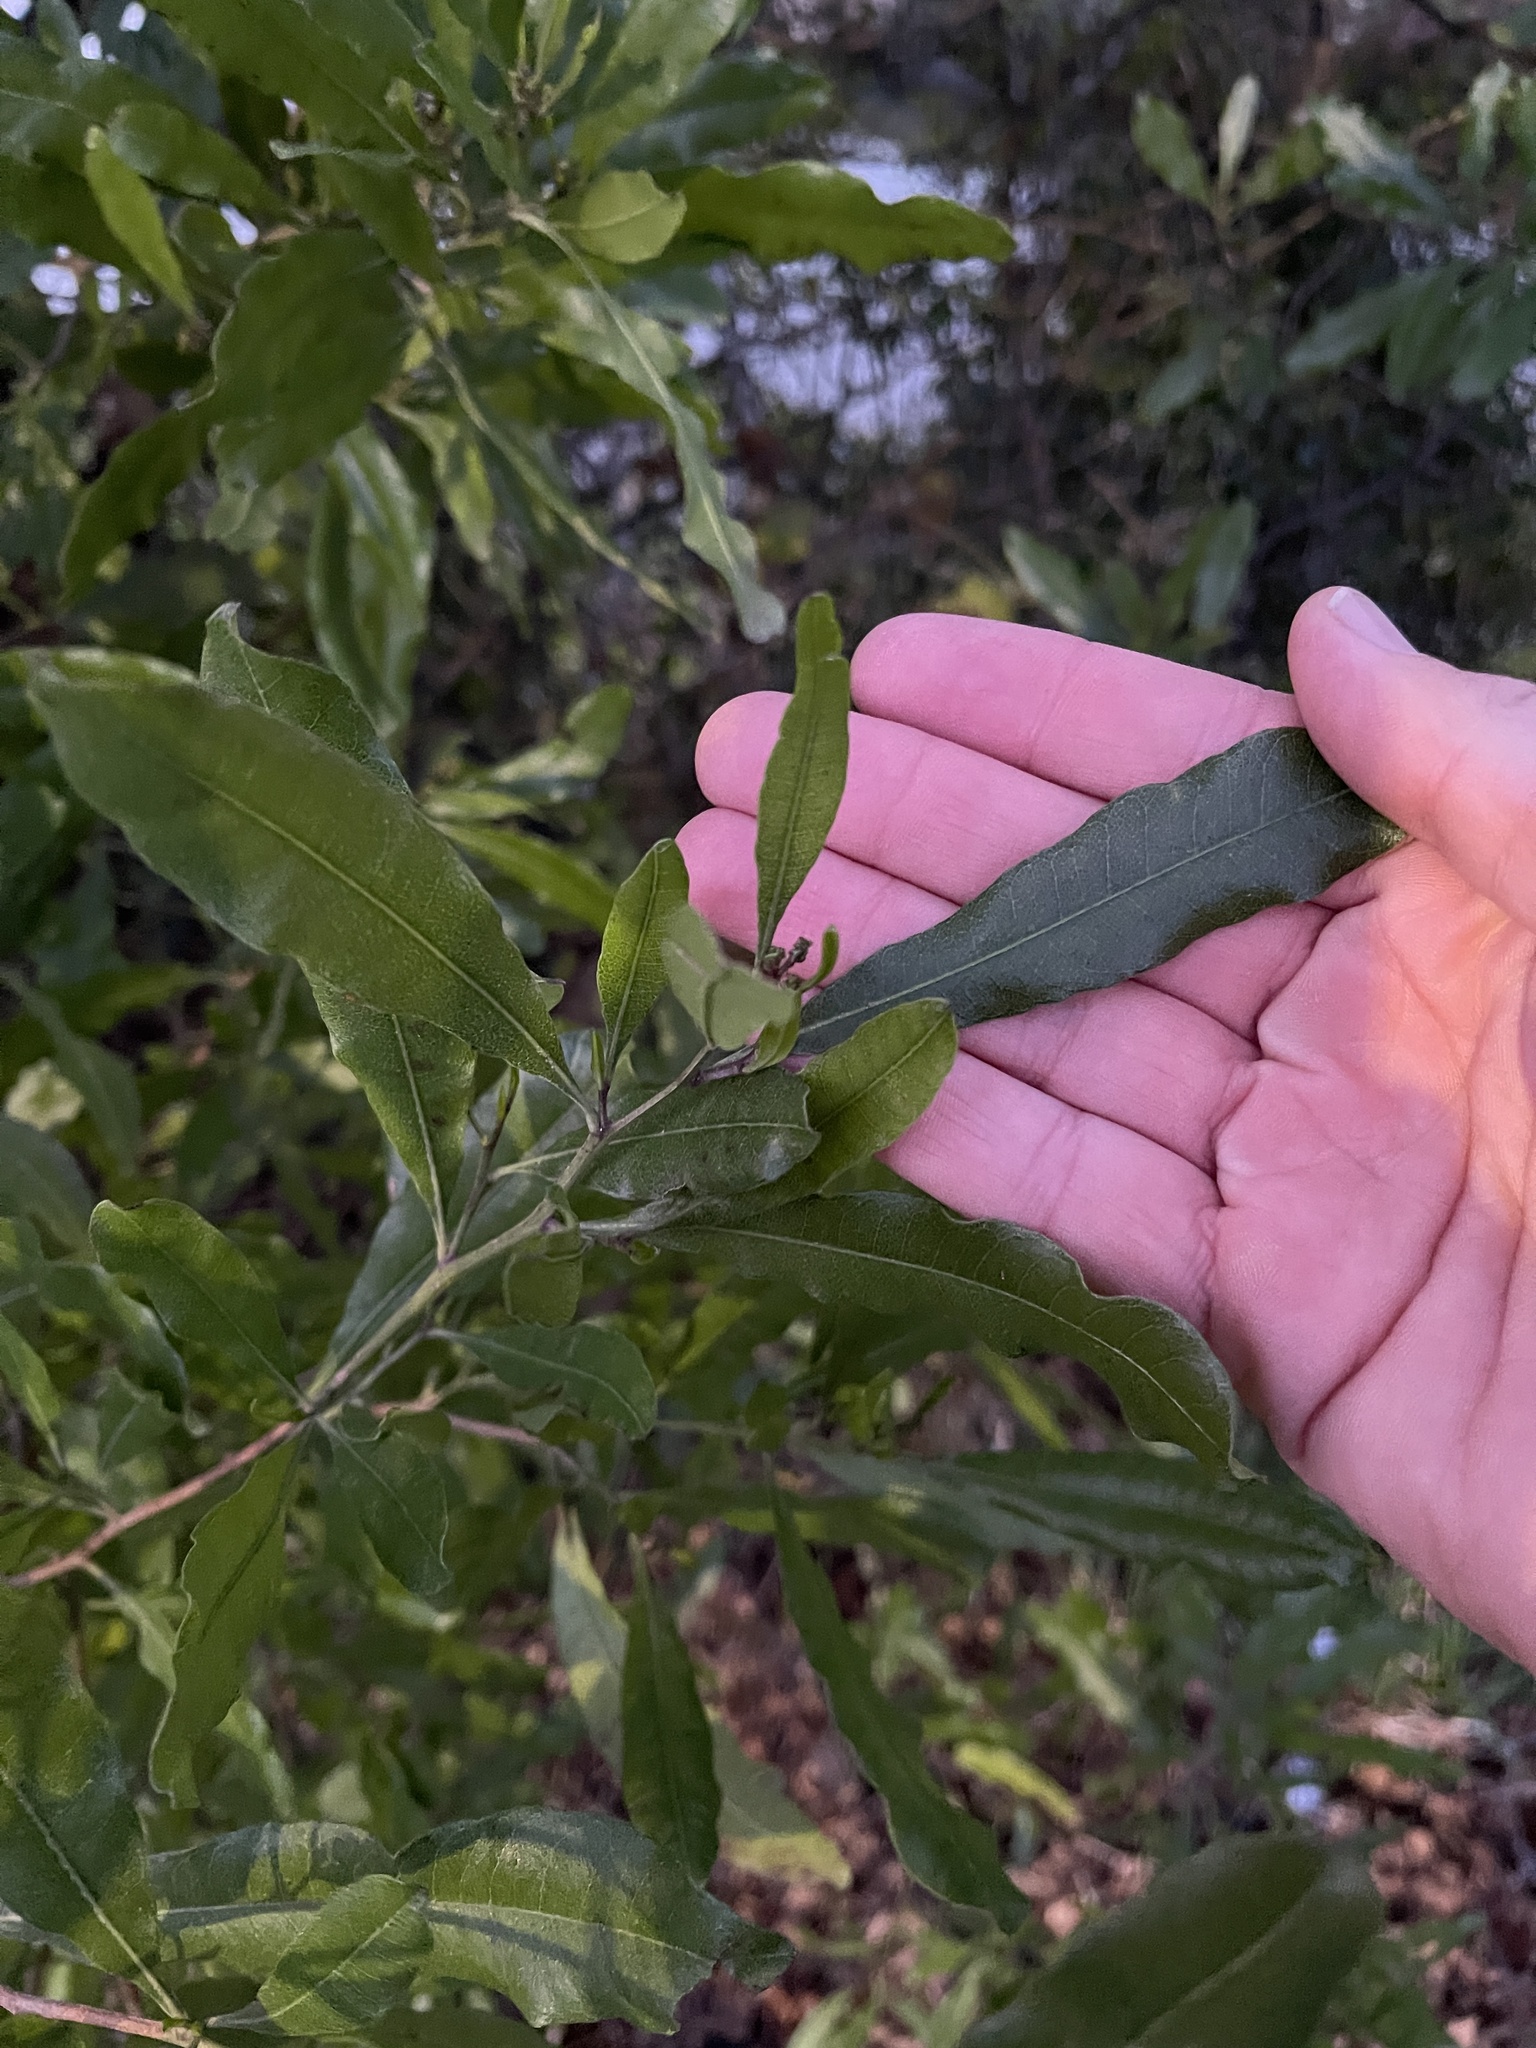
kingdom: Plantae
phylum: Tracheophyta
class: Magnoliopsida
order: Sapindales
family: Sapindaceae
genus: Dodonaea
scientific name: Dodonaea viscosa
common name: Hopbush
